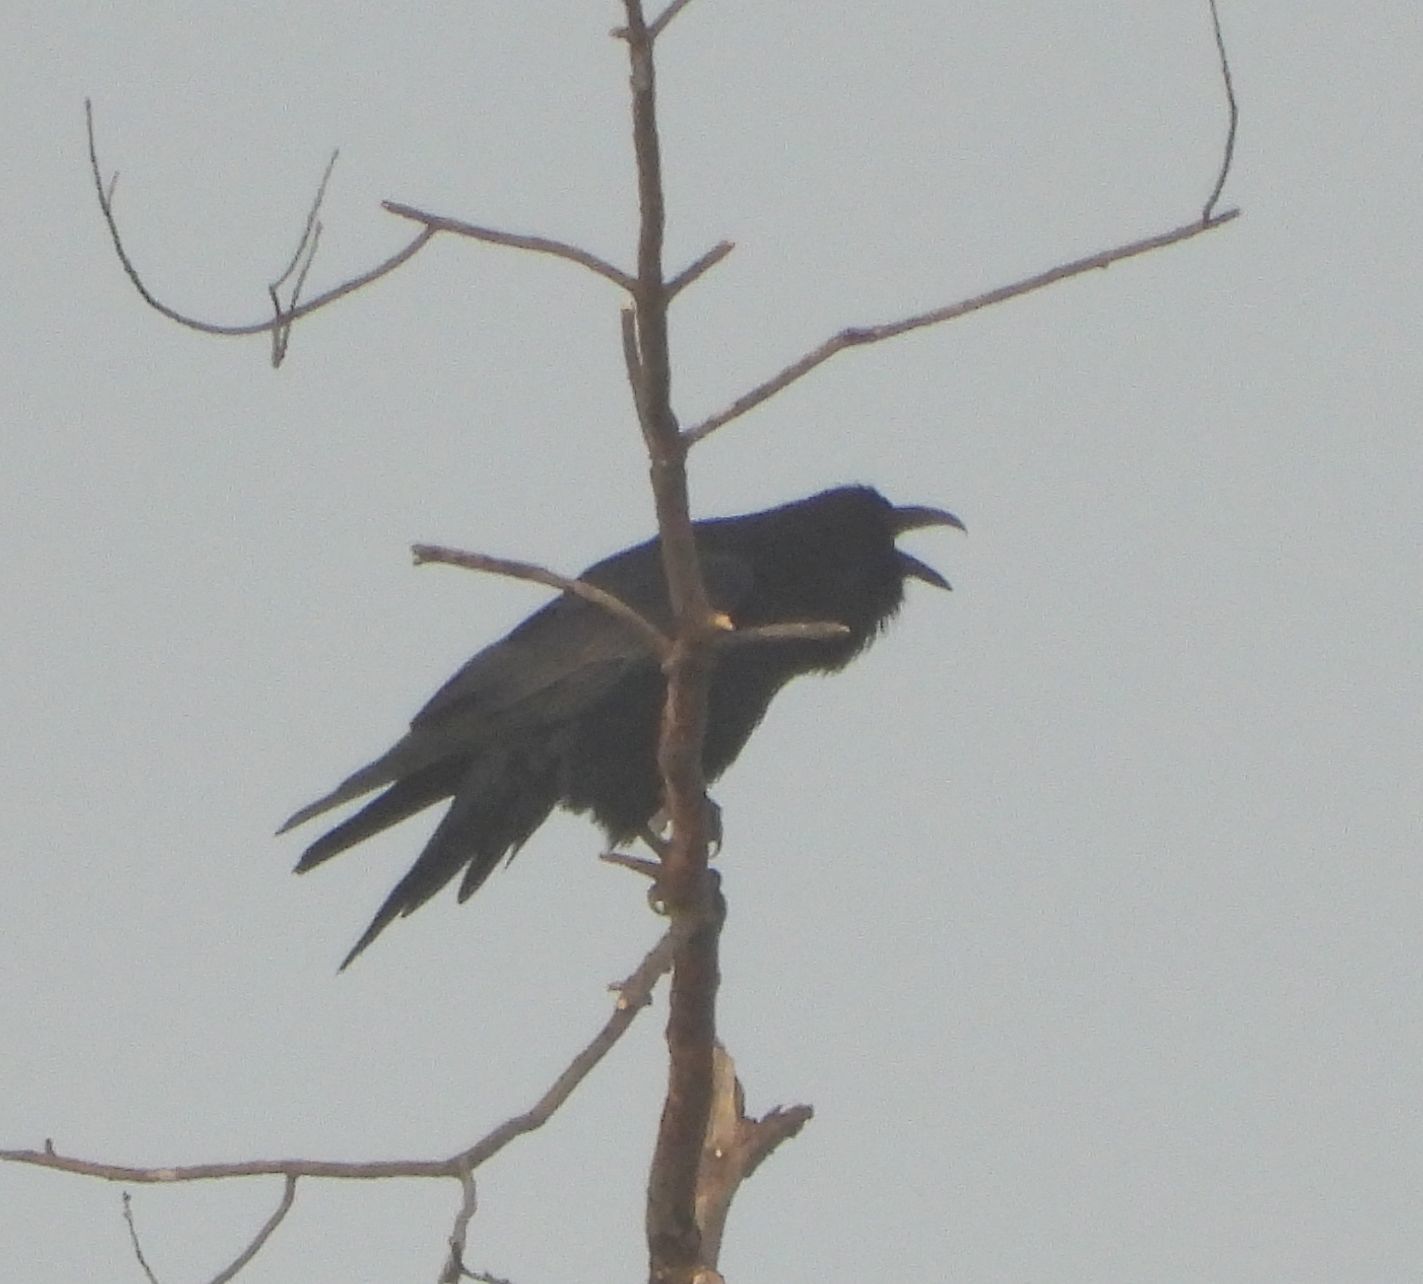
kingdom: Animalia
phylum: Chordata
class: Aves
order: Passeriformes
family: Corvidae
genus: Corvus
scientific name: Corvus corax
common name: Common raven
